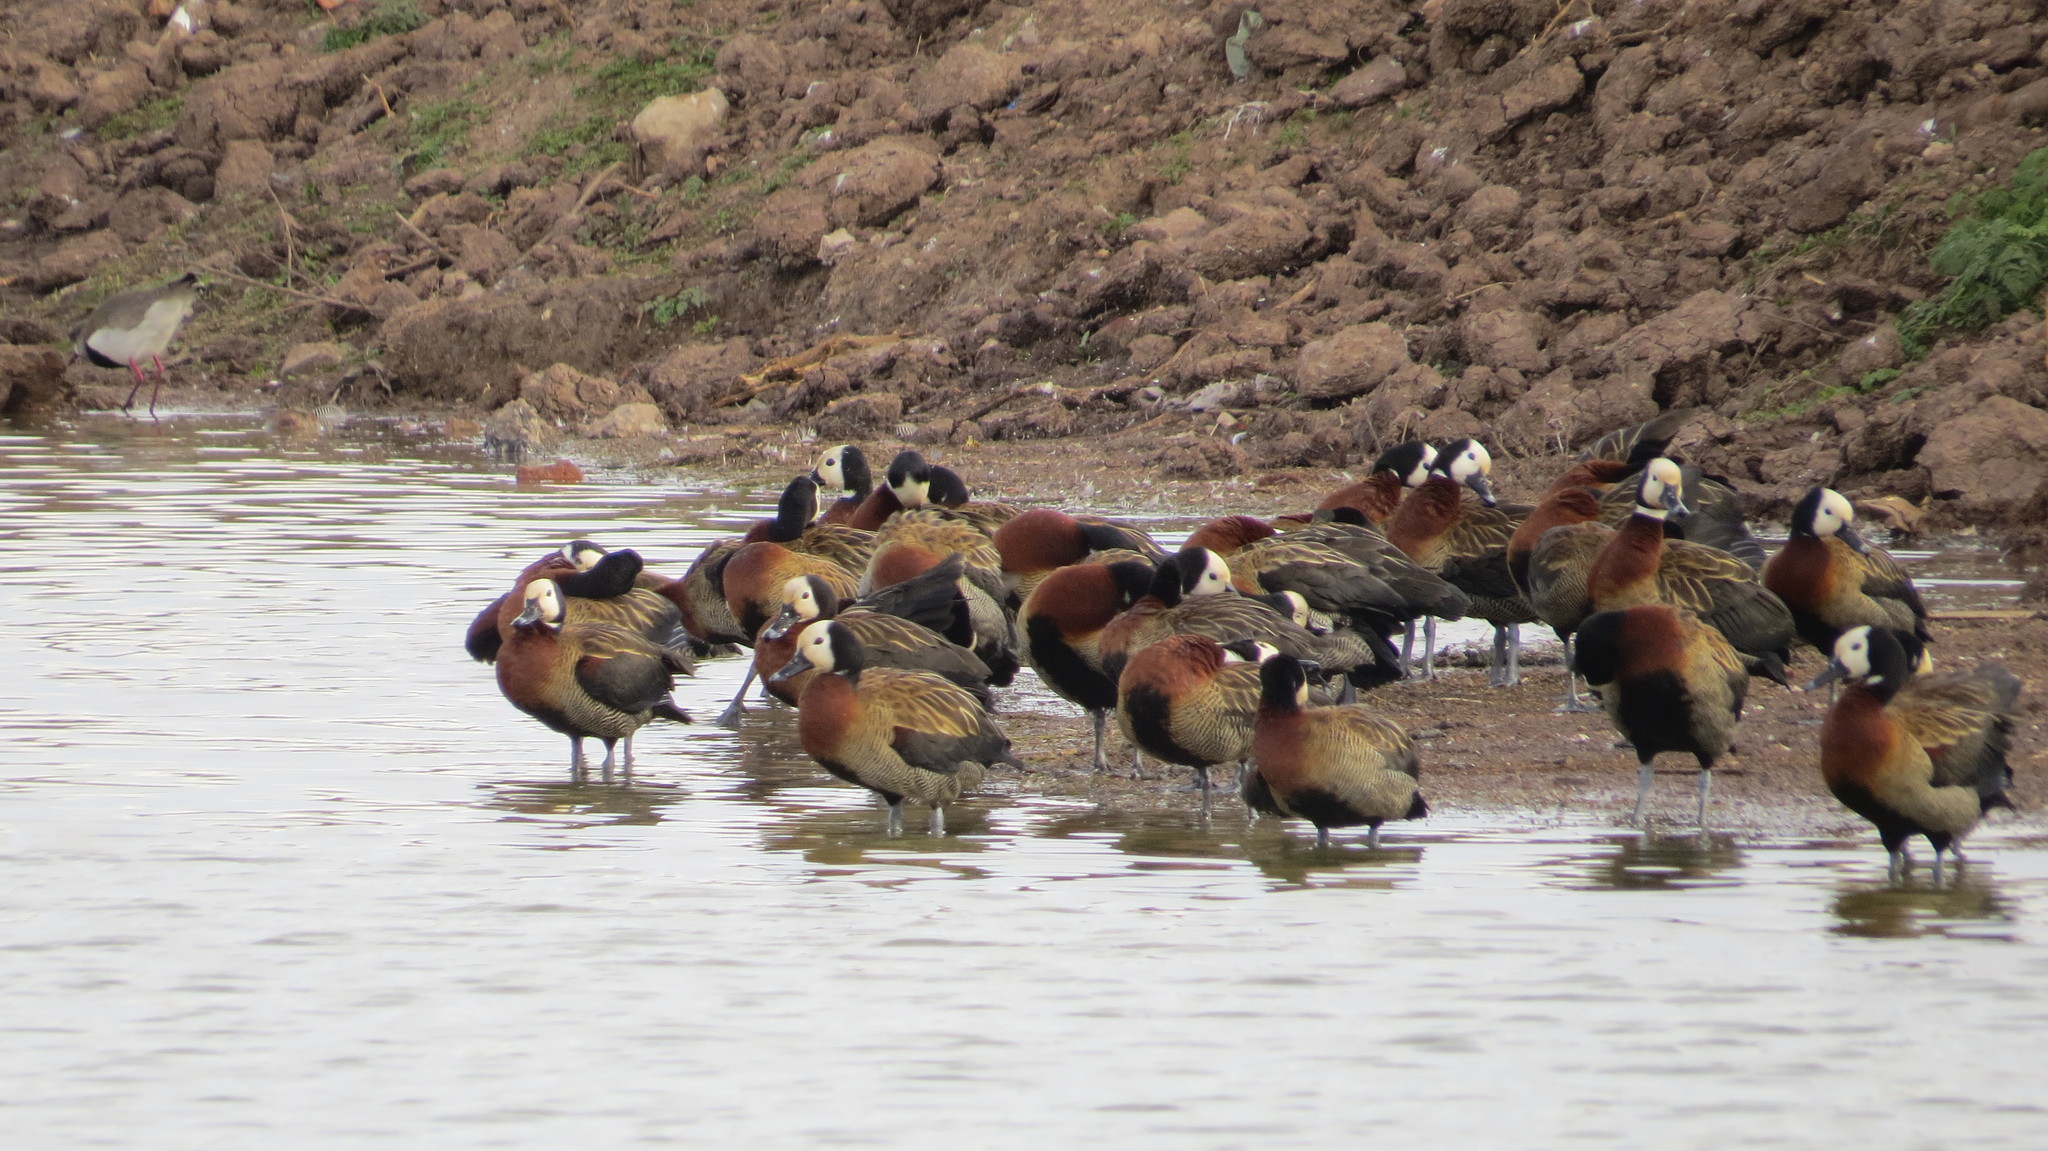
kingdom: Animalia
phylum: Chordata
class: Aves
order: Anseriformes
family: Anatidae
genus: Dendrocygna
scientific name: Dendrocygna viduata
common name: White-faced whistling duck
